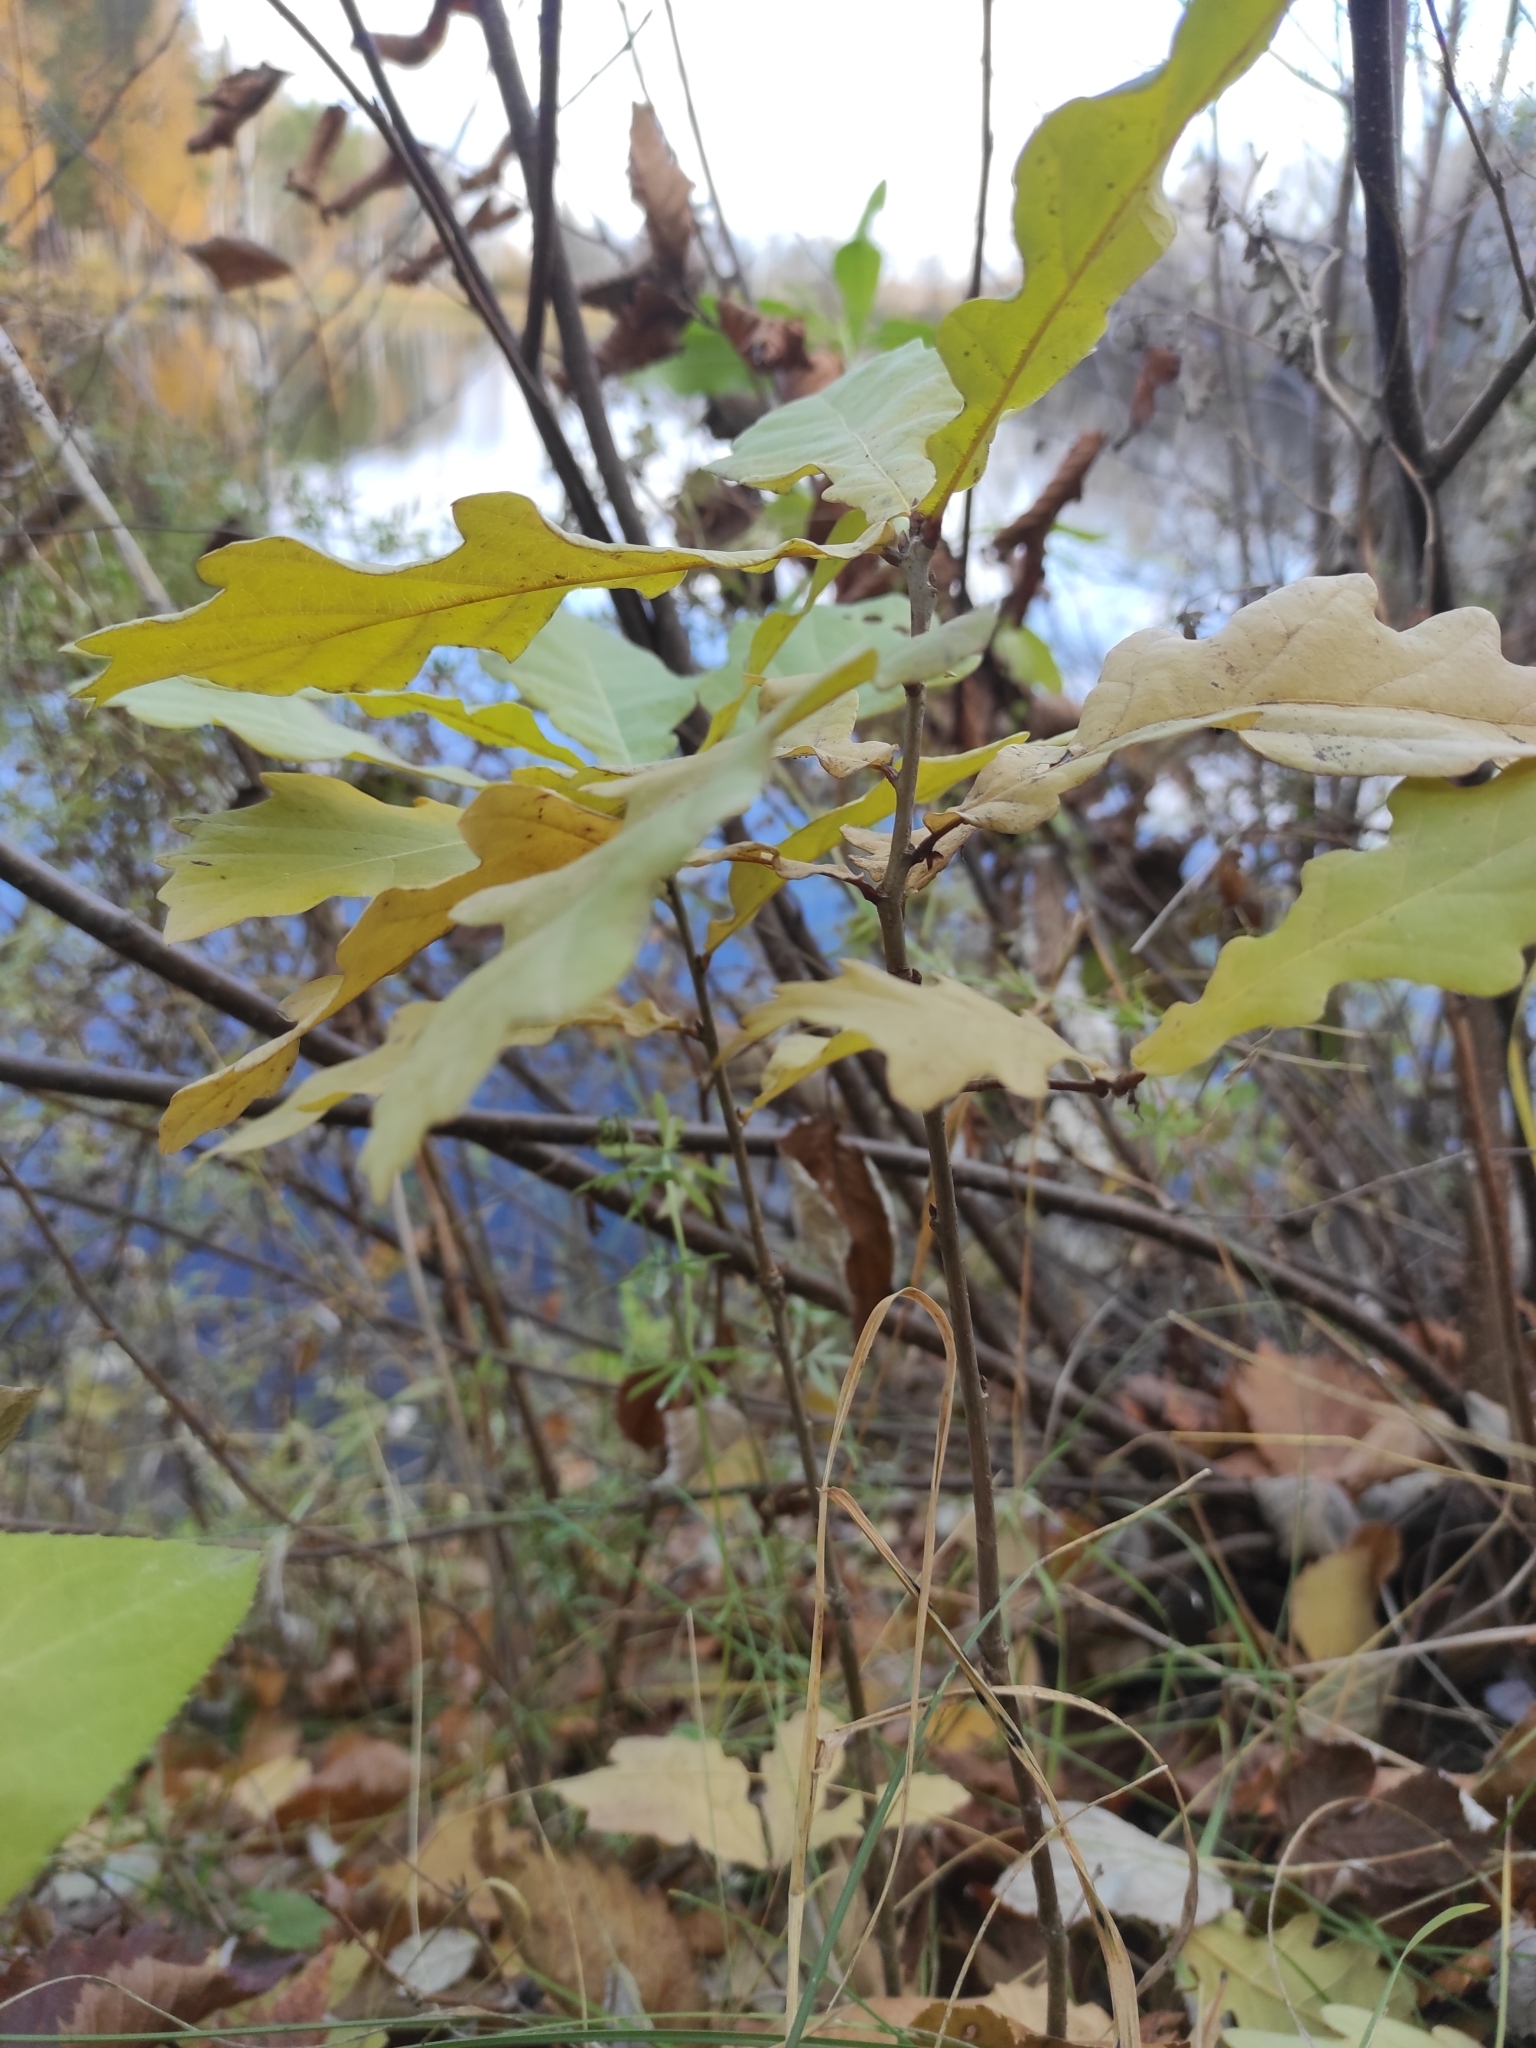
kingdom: Plantae
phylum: Tracheophyta
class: Magnoliopsida
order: Fagales
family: Fagaceae
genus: Quercus
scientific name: Quercus robur
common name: Pedunculate oak
